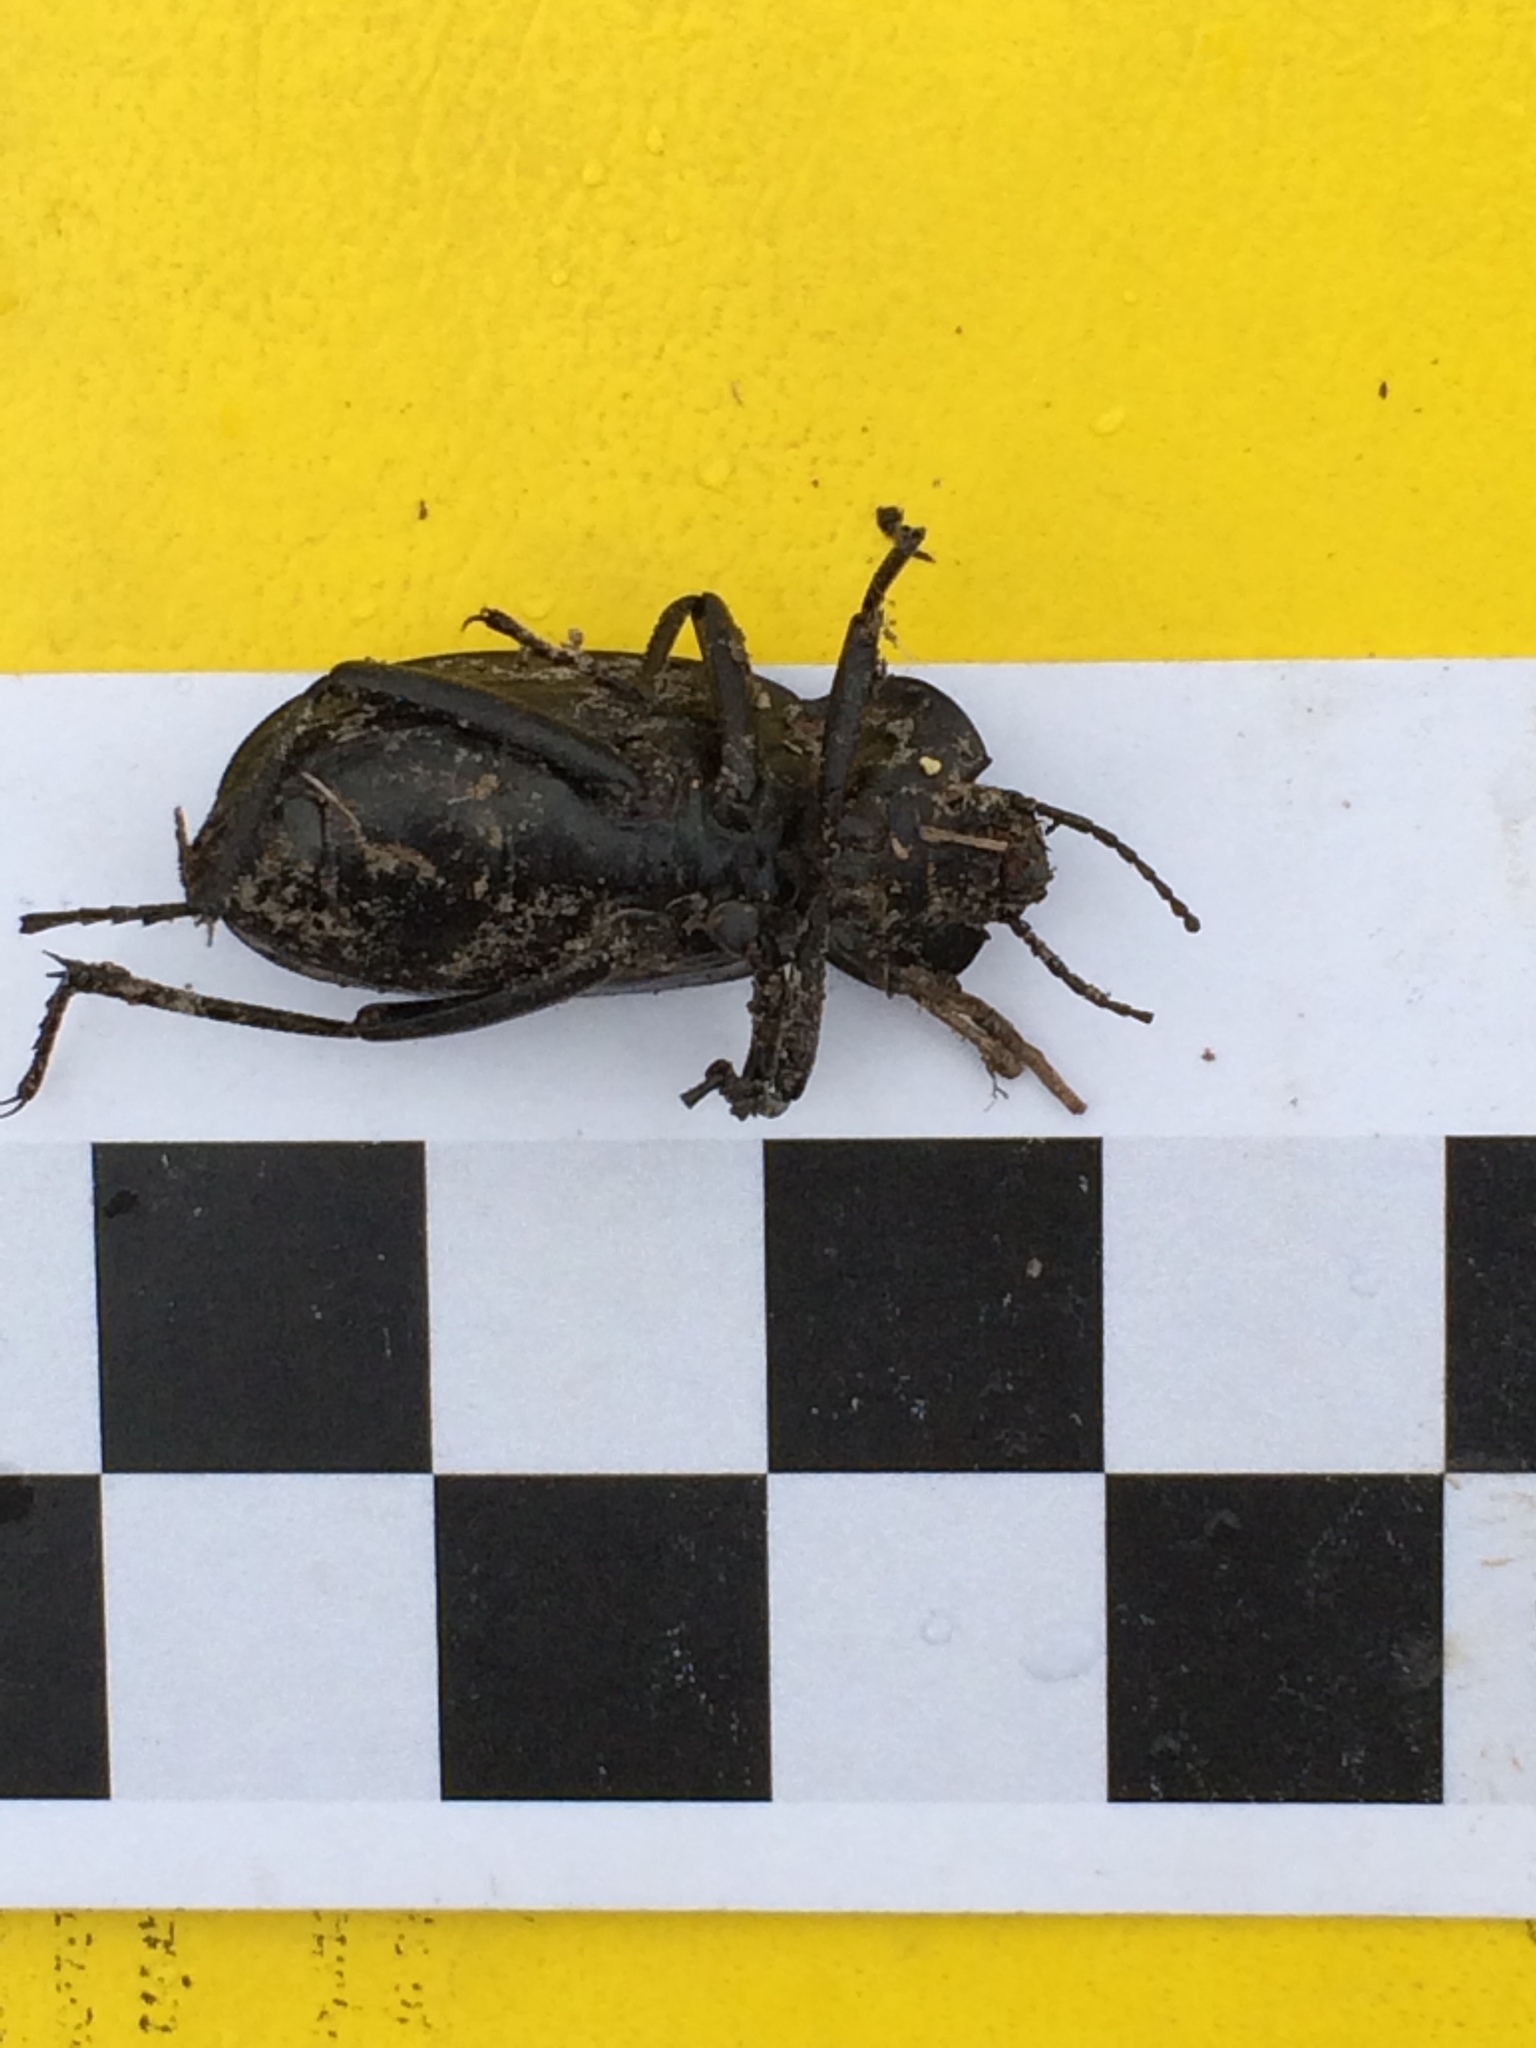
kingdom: Animalia
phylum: Arthropoda
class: Insecta
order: Coleoptera
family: Tenebrionidae
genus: Eleodes
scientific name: Eleodes suturalis
